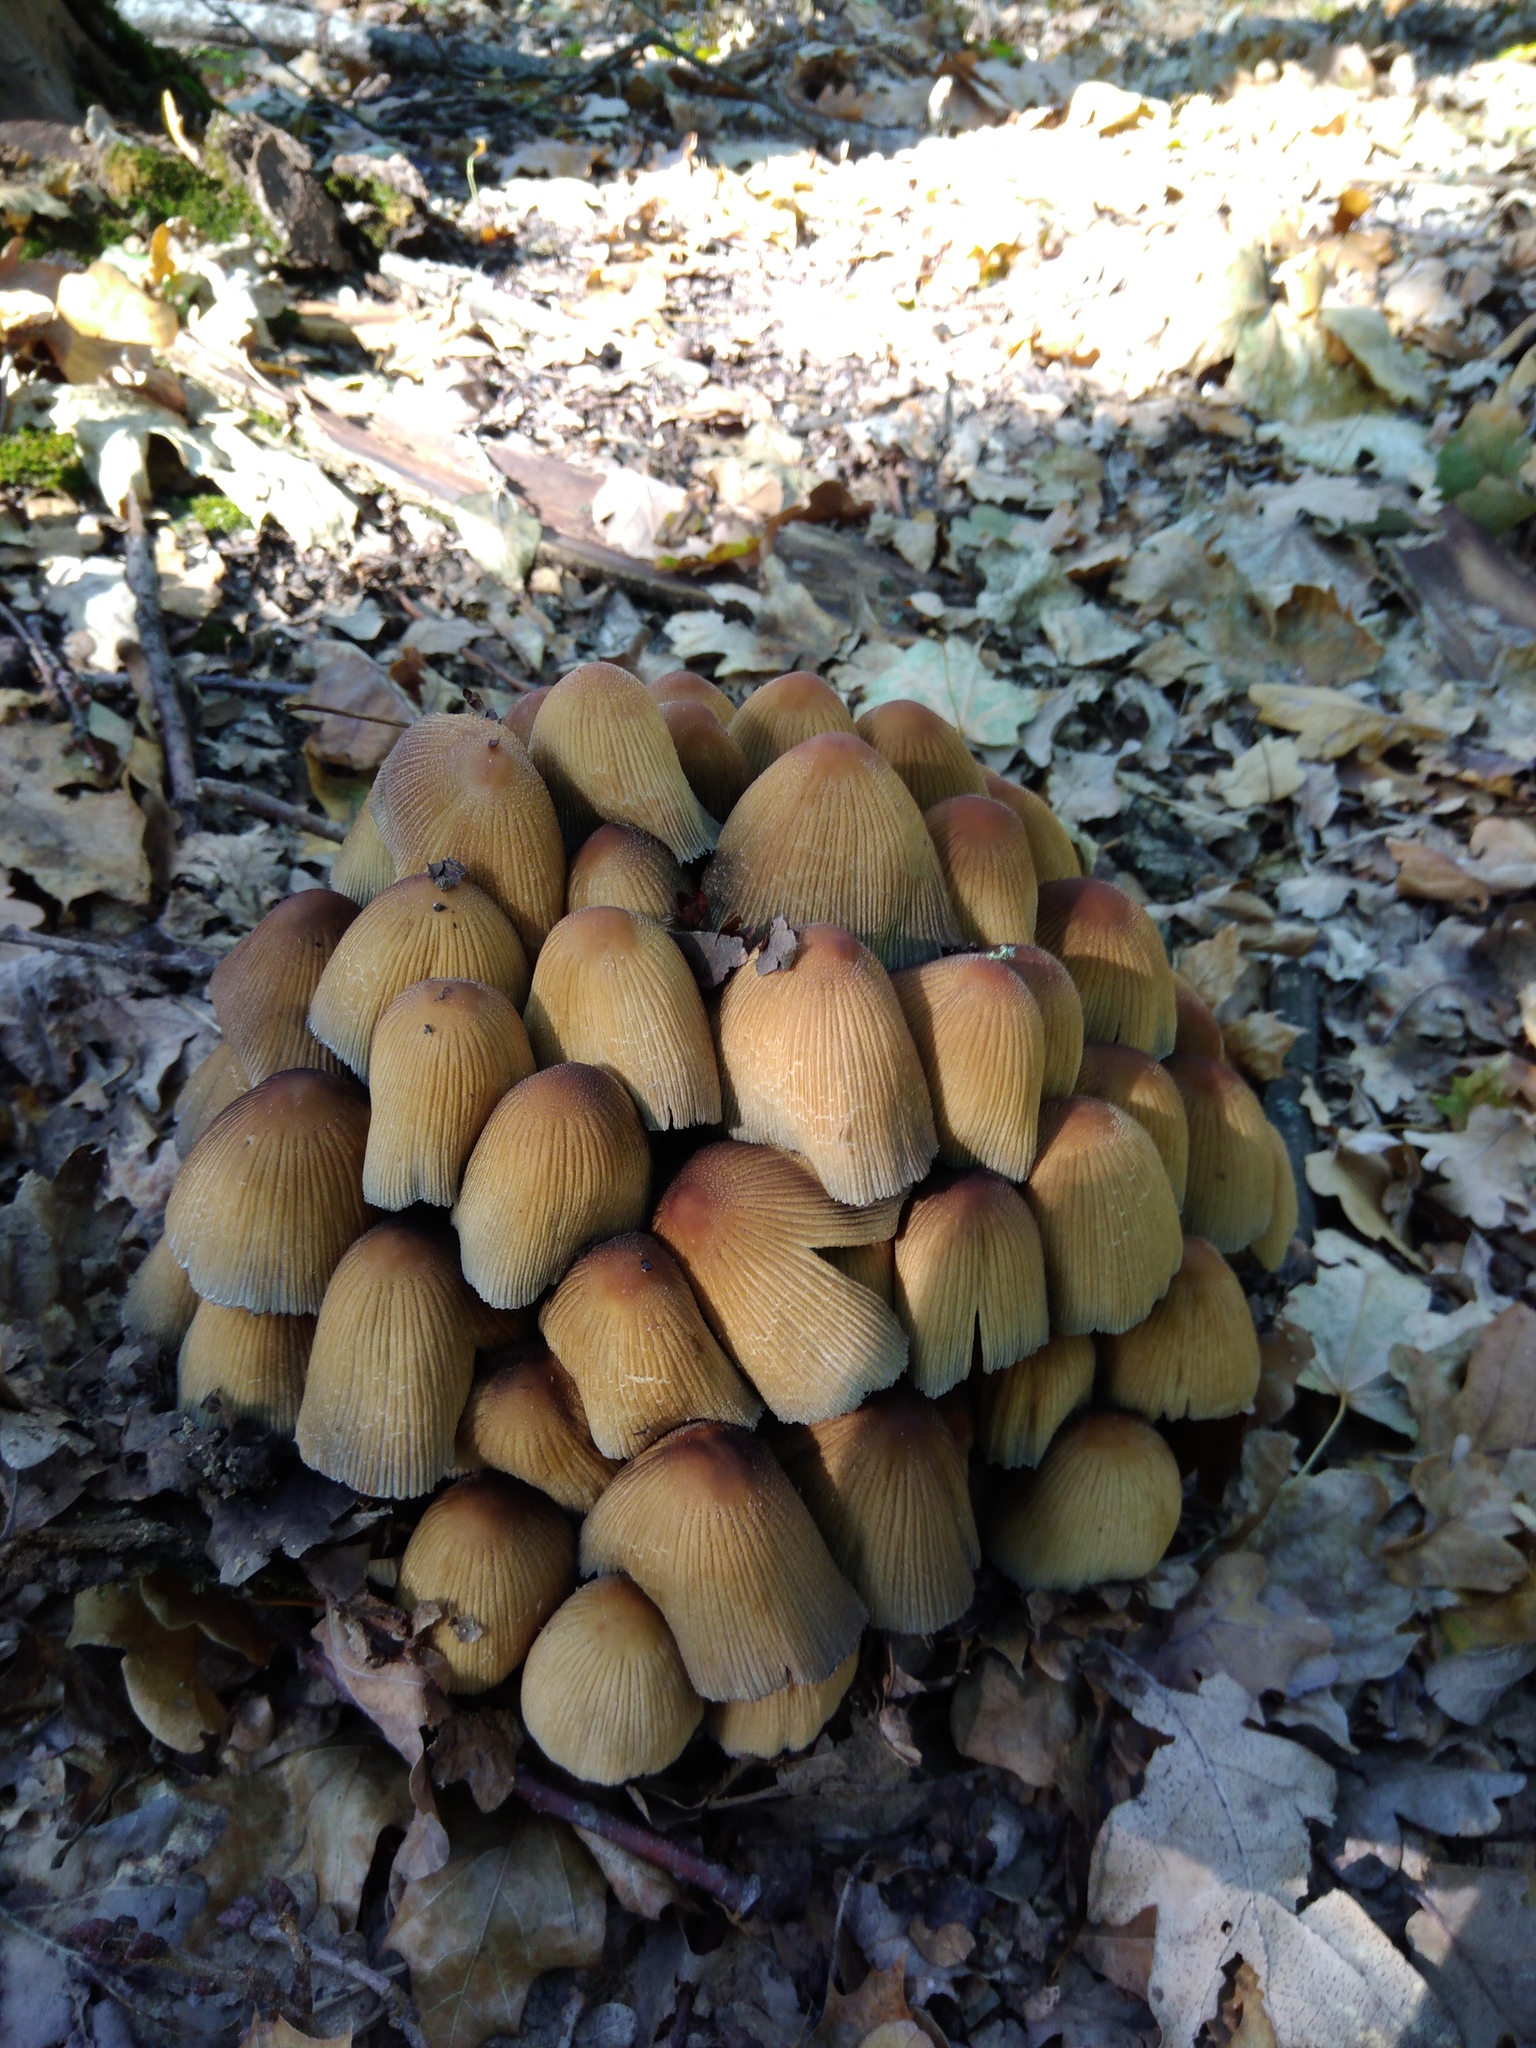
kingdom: Fungi
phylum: Basidiomycota
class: Agaricomycetes
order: Agaricales
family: Psathyrellaceae
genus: Coprinellus
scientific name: Coprinellus micaceus
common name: Glistening ink-cap
